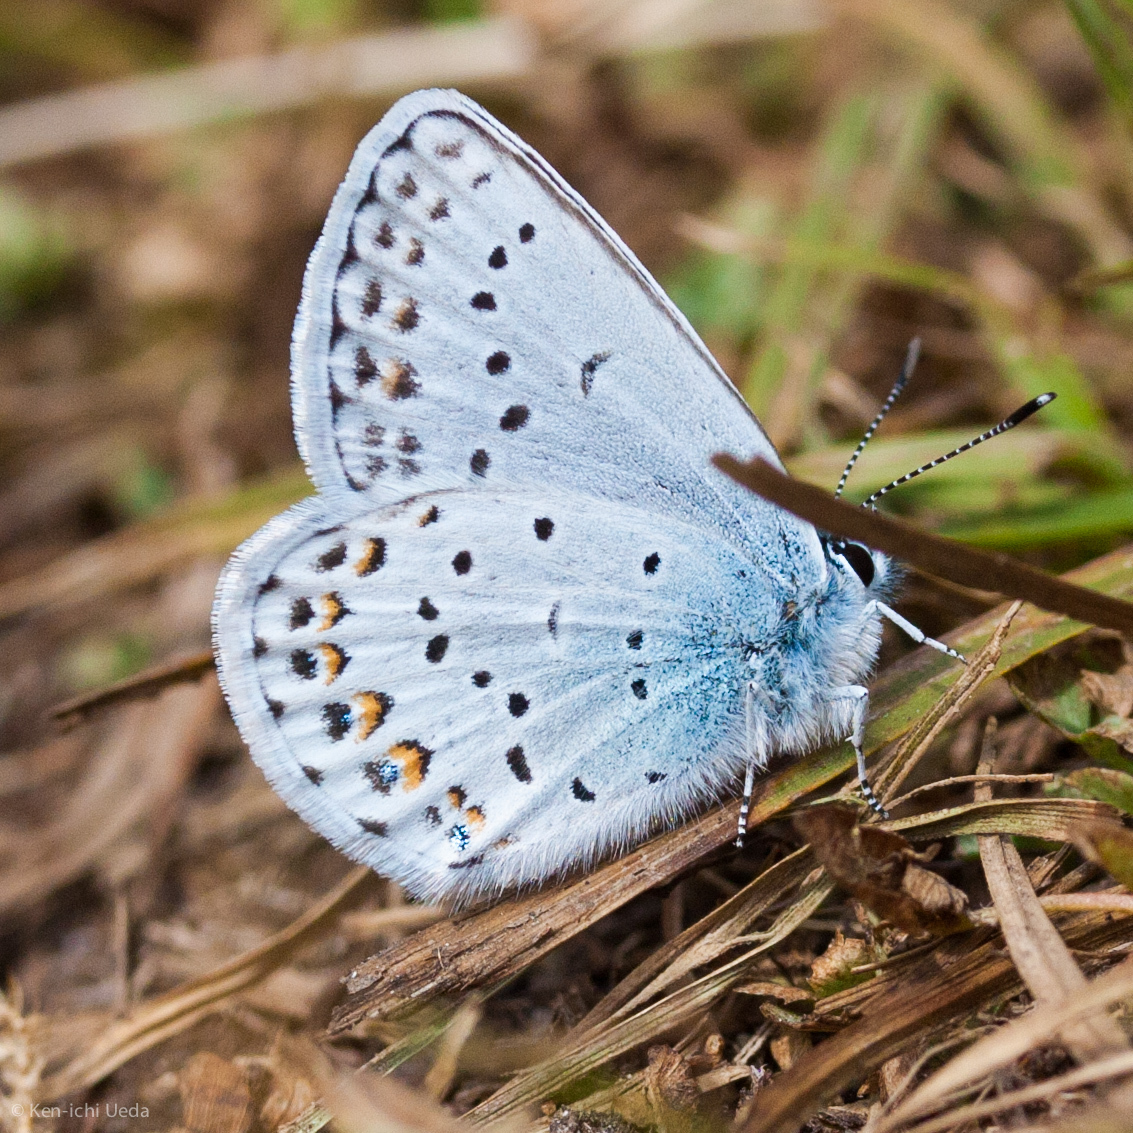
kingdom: Animalia
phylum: Arthropoda
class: Insecta
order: Lepidoptera
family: Lycaenidae
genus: Lycaeides
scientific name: Lycaeides anna
